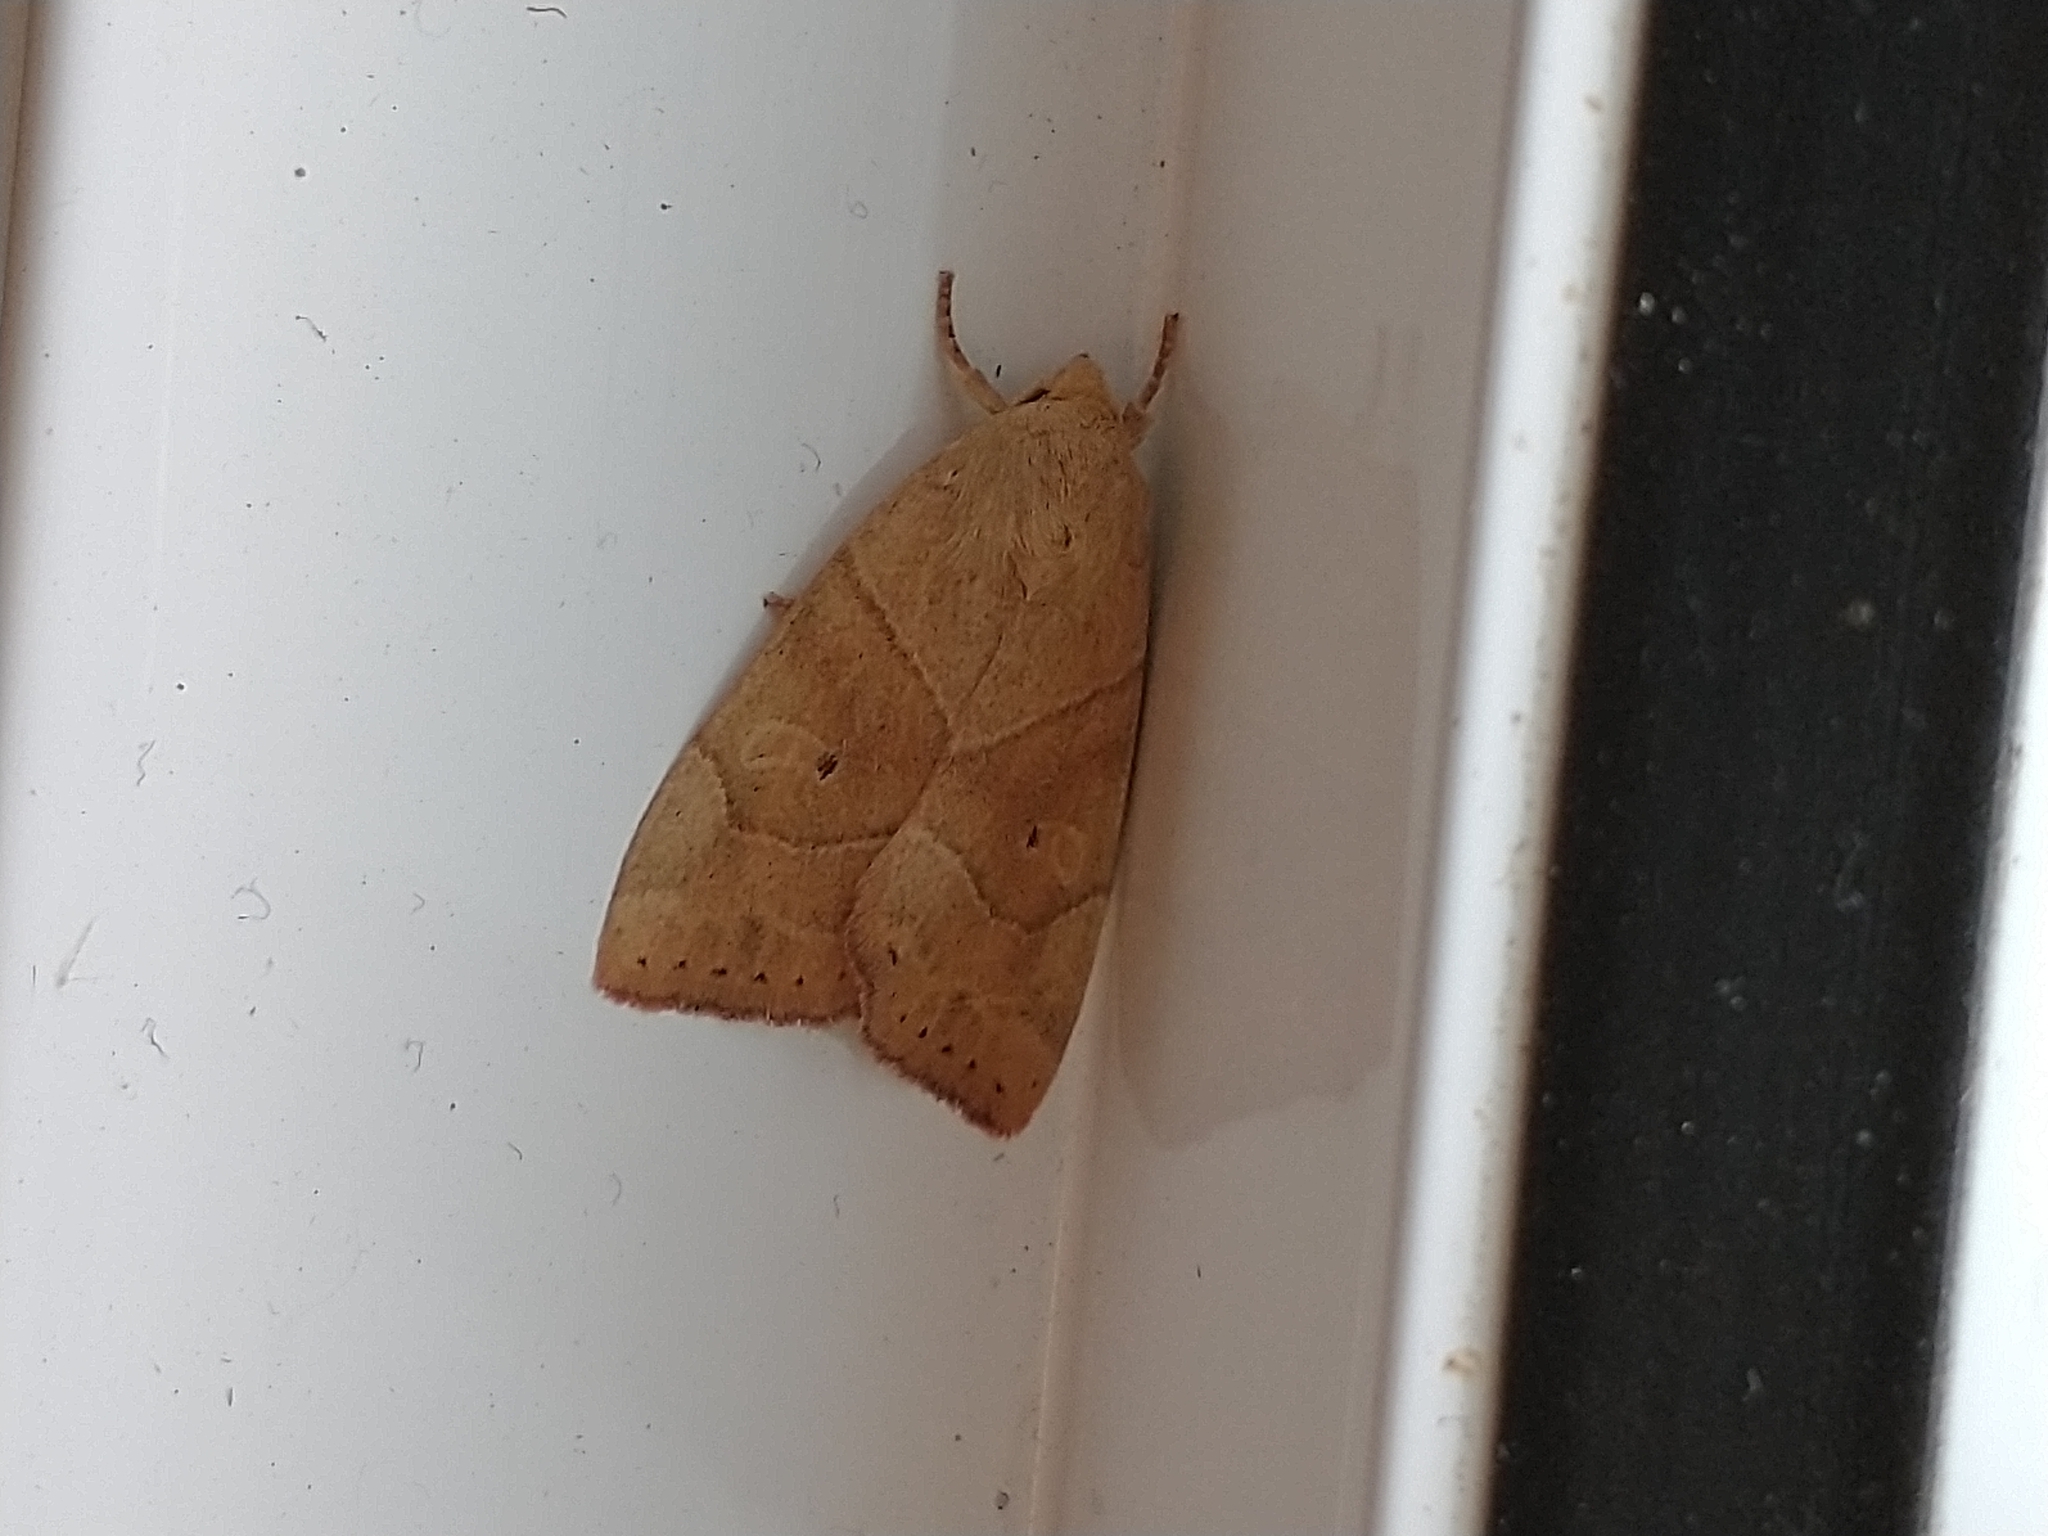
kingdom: Animalia
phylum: Arthropoda
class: Insecta
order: Lepidoptera
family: Noctuidae
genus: Cosmia
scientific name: Cosmia trapezina
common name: Dun-bar
